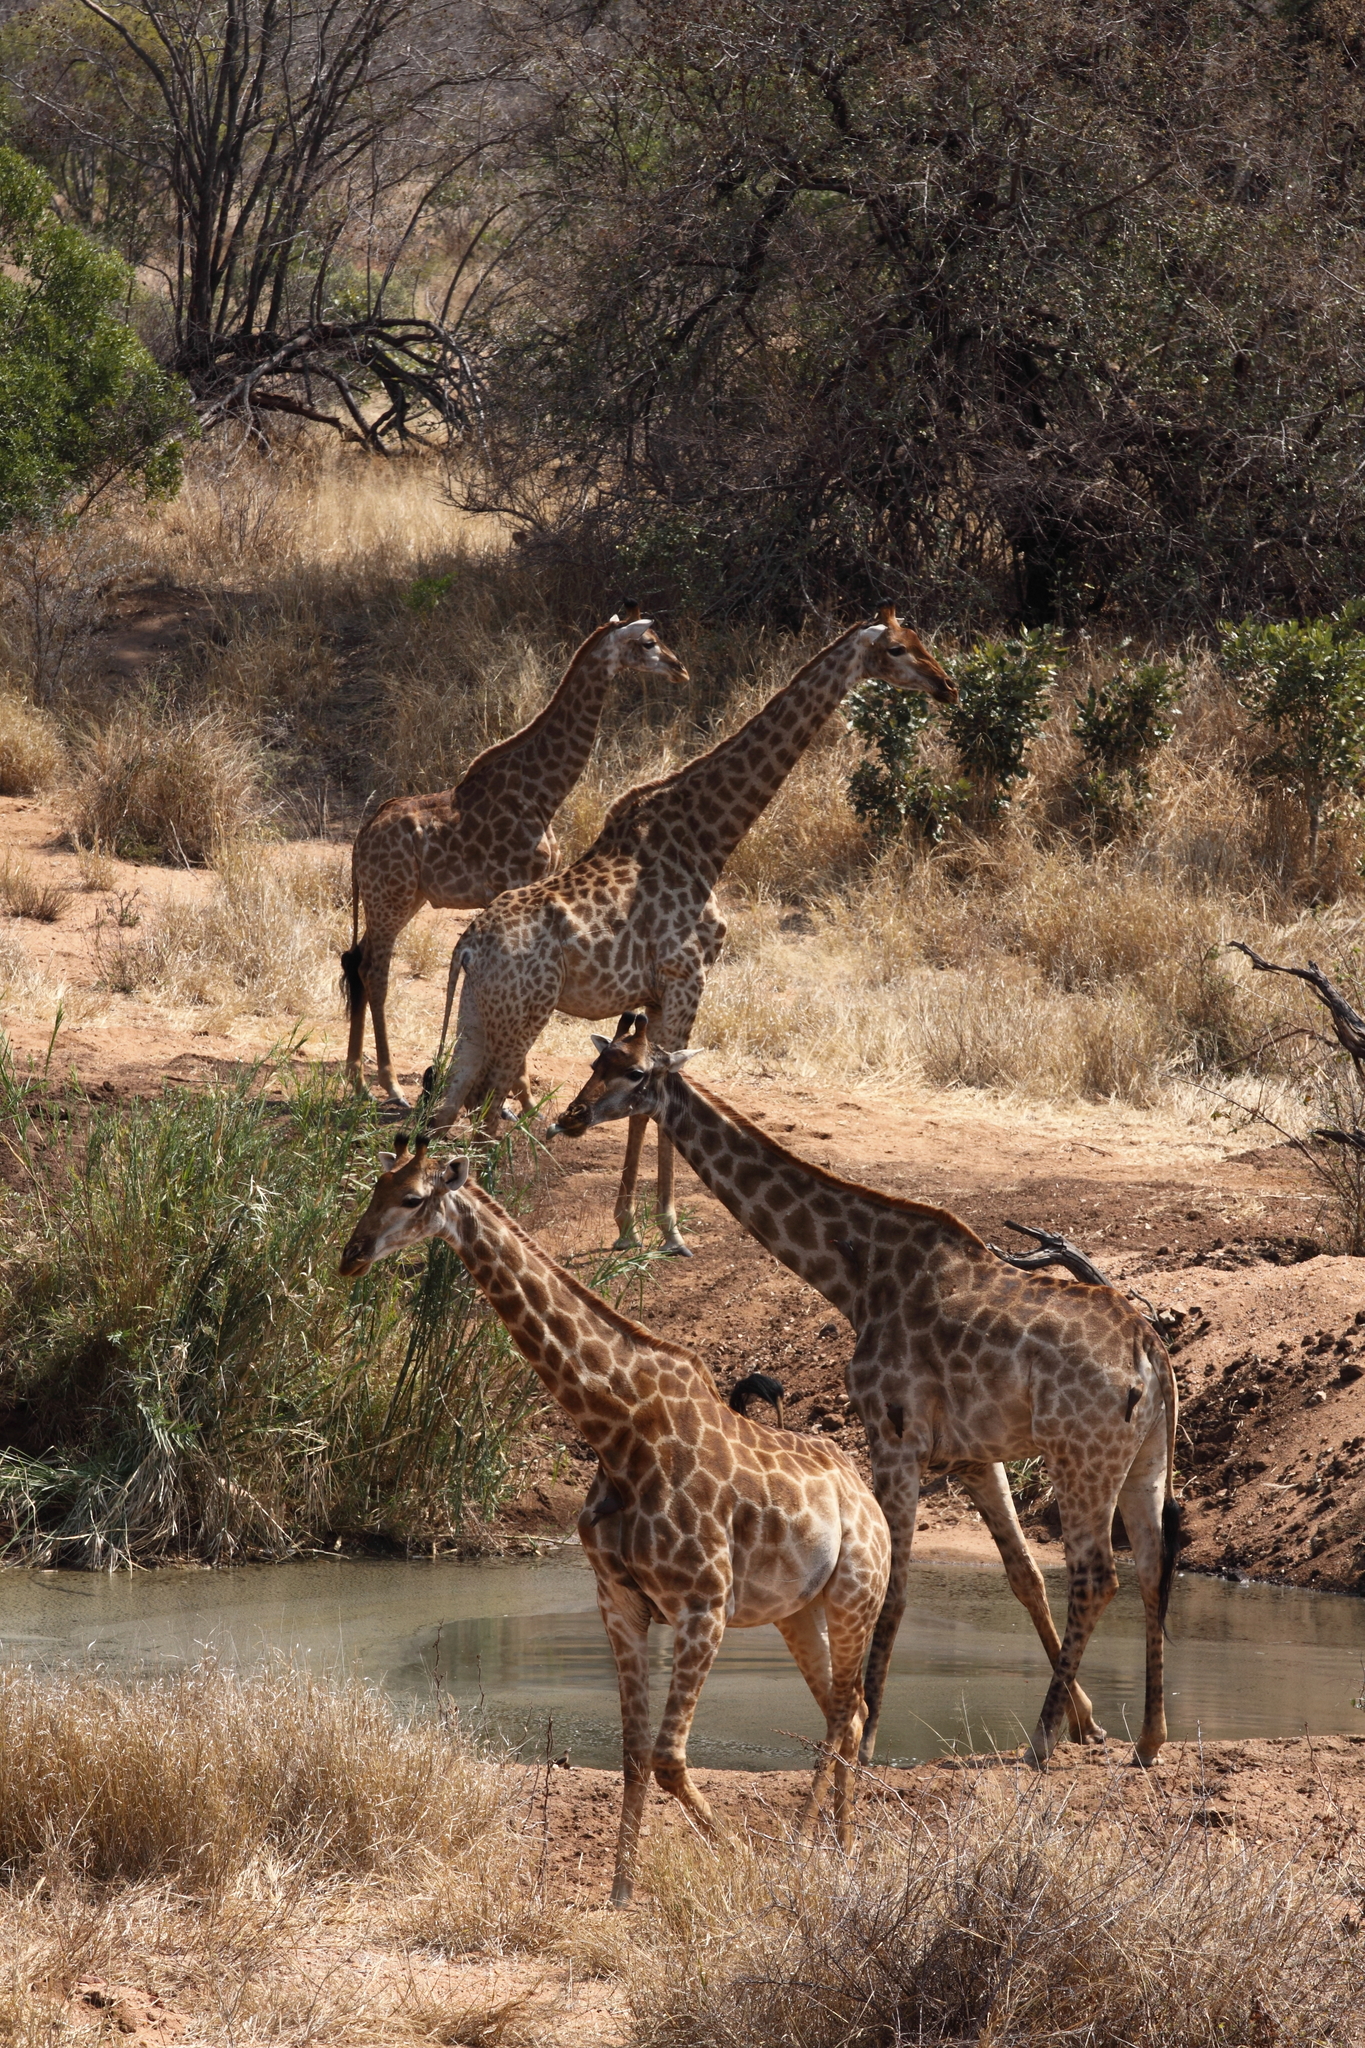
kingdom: Animalia
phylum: Chordata
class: Mammalia
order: Artiodactyla
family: Giraffidae
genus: Giraffa
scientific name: Giraffa giraffa
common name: Southern giraffe
